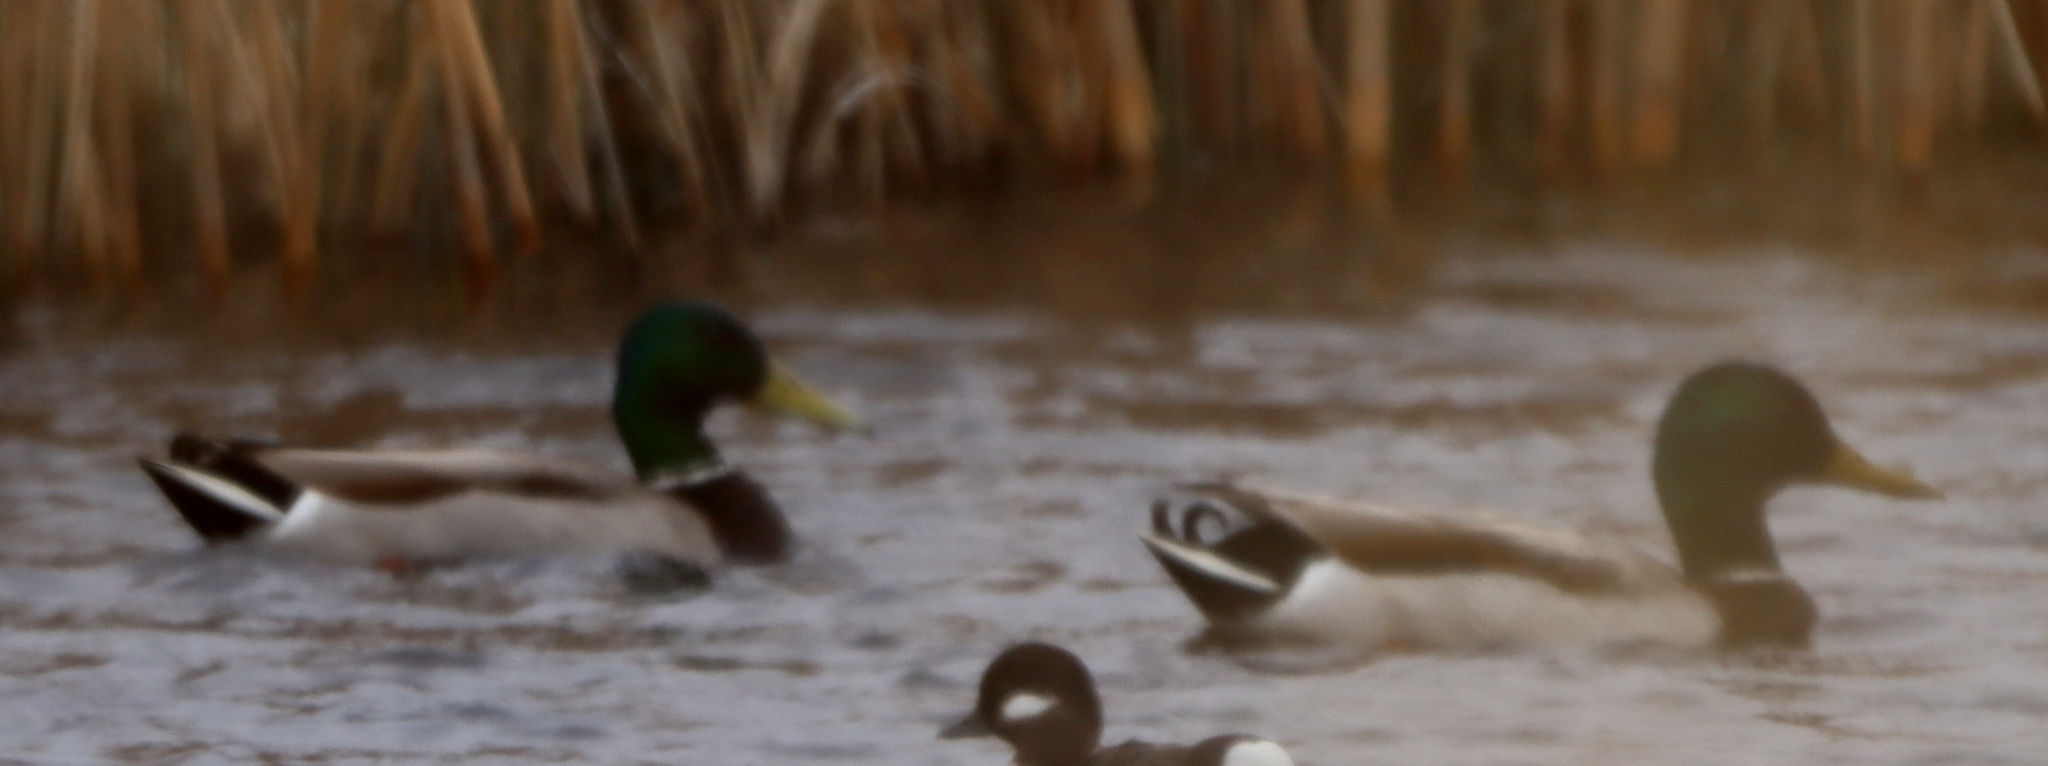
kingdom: Animalia
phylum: Chordata
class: Aves
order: Anseriformes
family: Anatidae
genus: Anas
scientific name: Anas platyrhynchos
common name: Mallard
